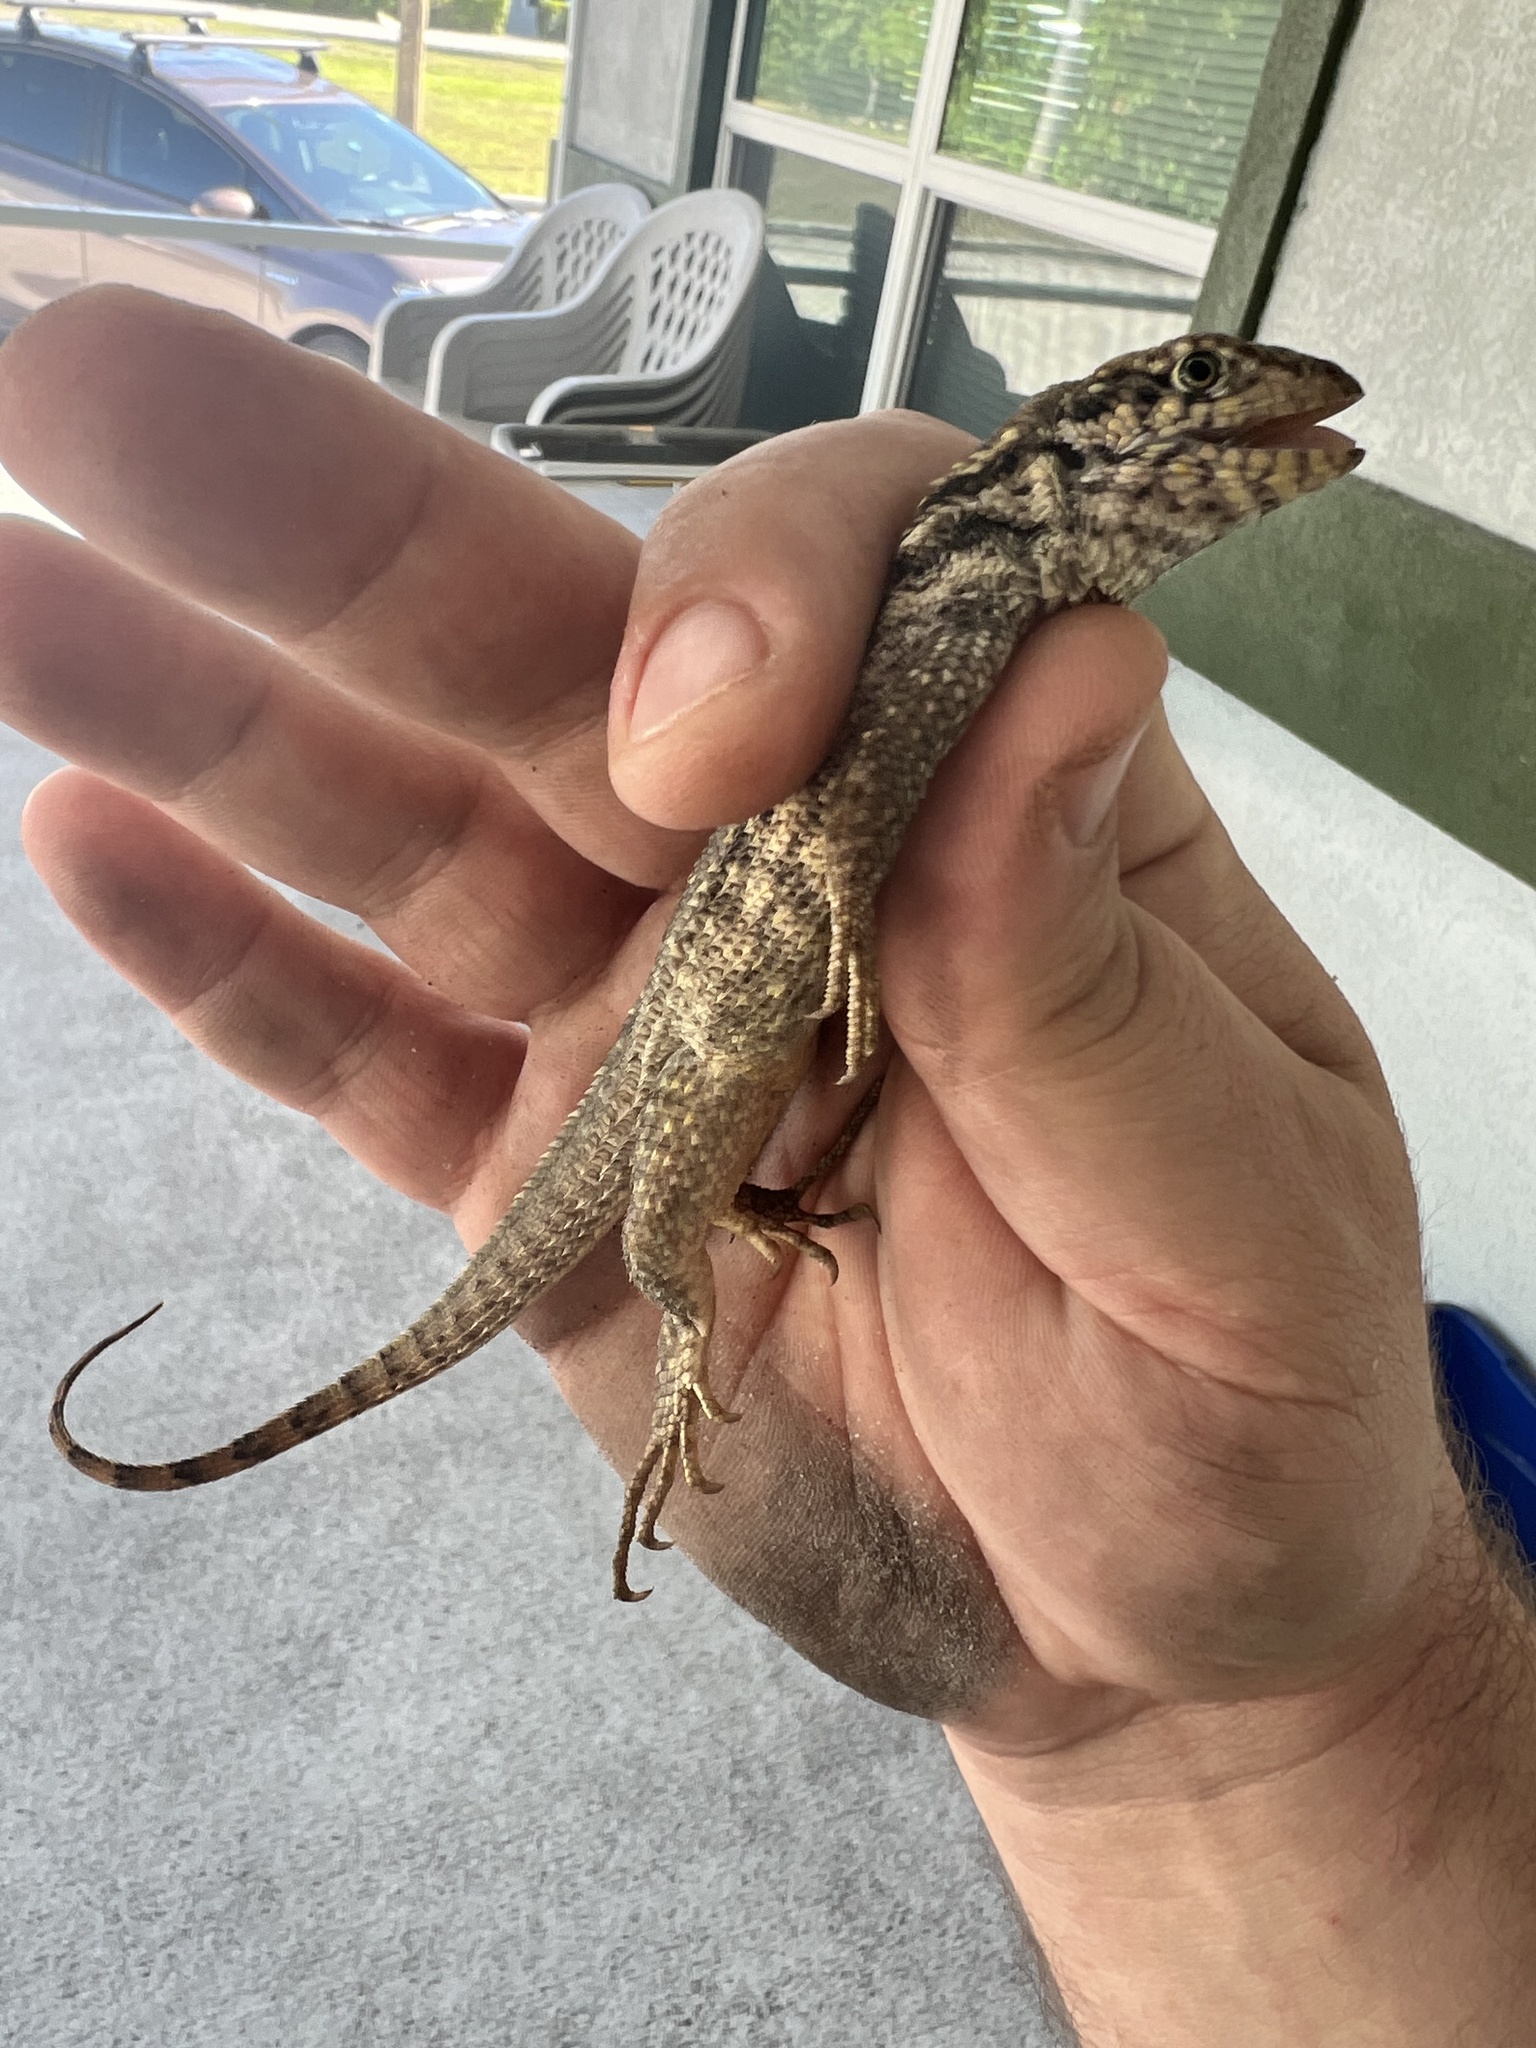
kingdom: Animalia
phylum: Chordata
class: Squamata
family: Leiocephalidae
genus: Leiocephalus
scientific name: Leiocephalus carinatus
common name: Northern curly-tailed lizard
